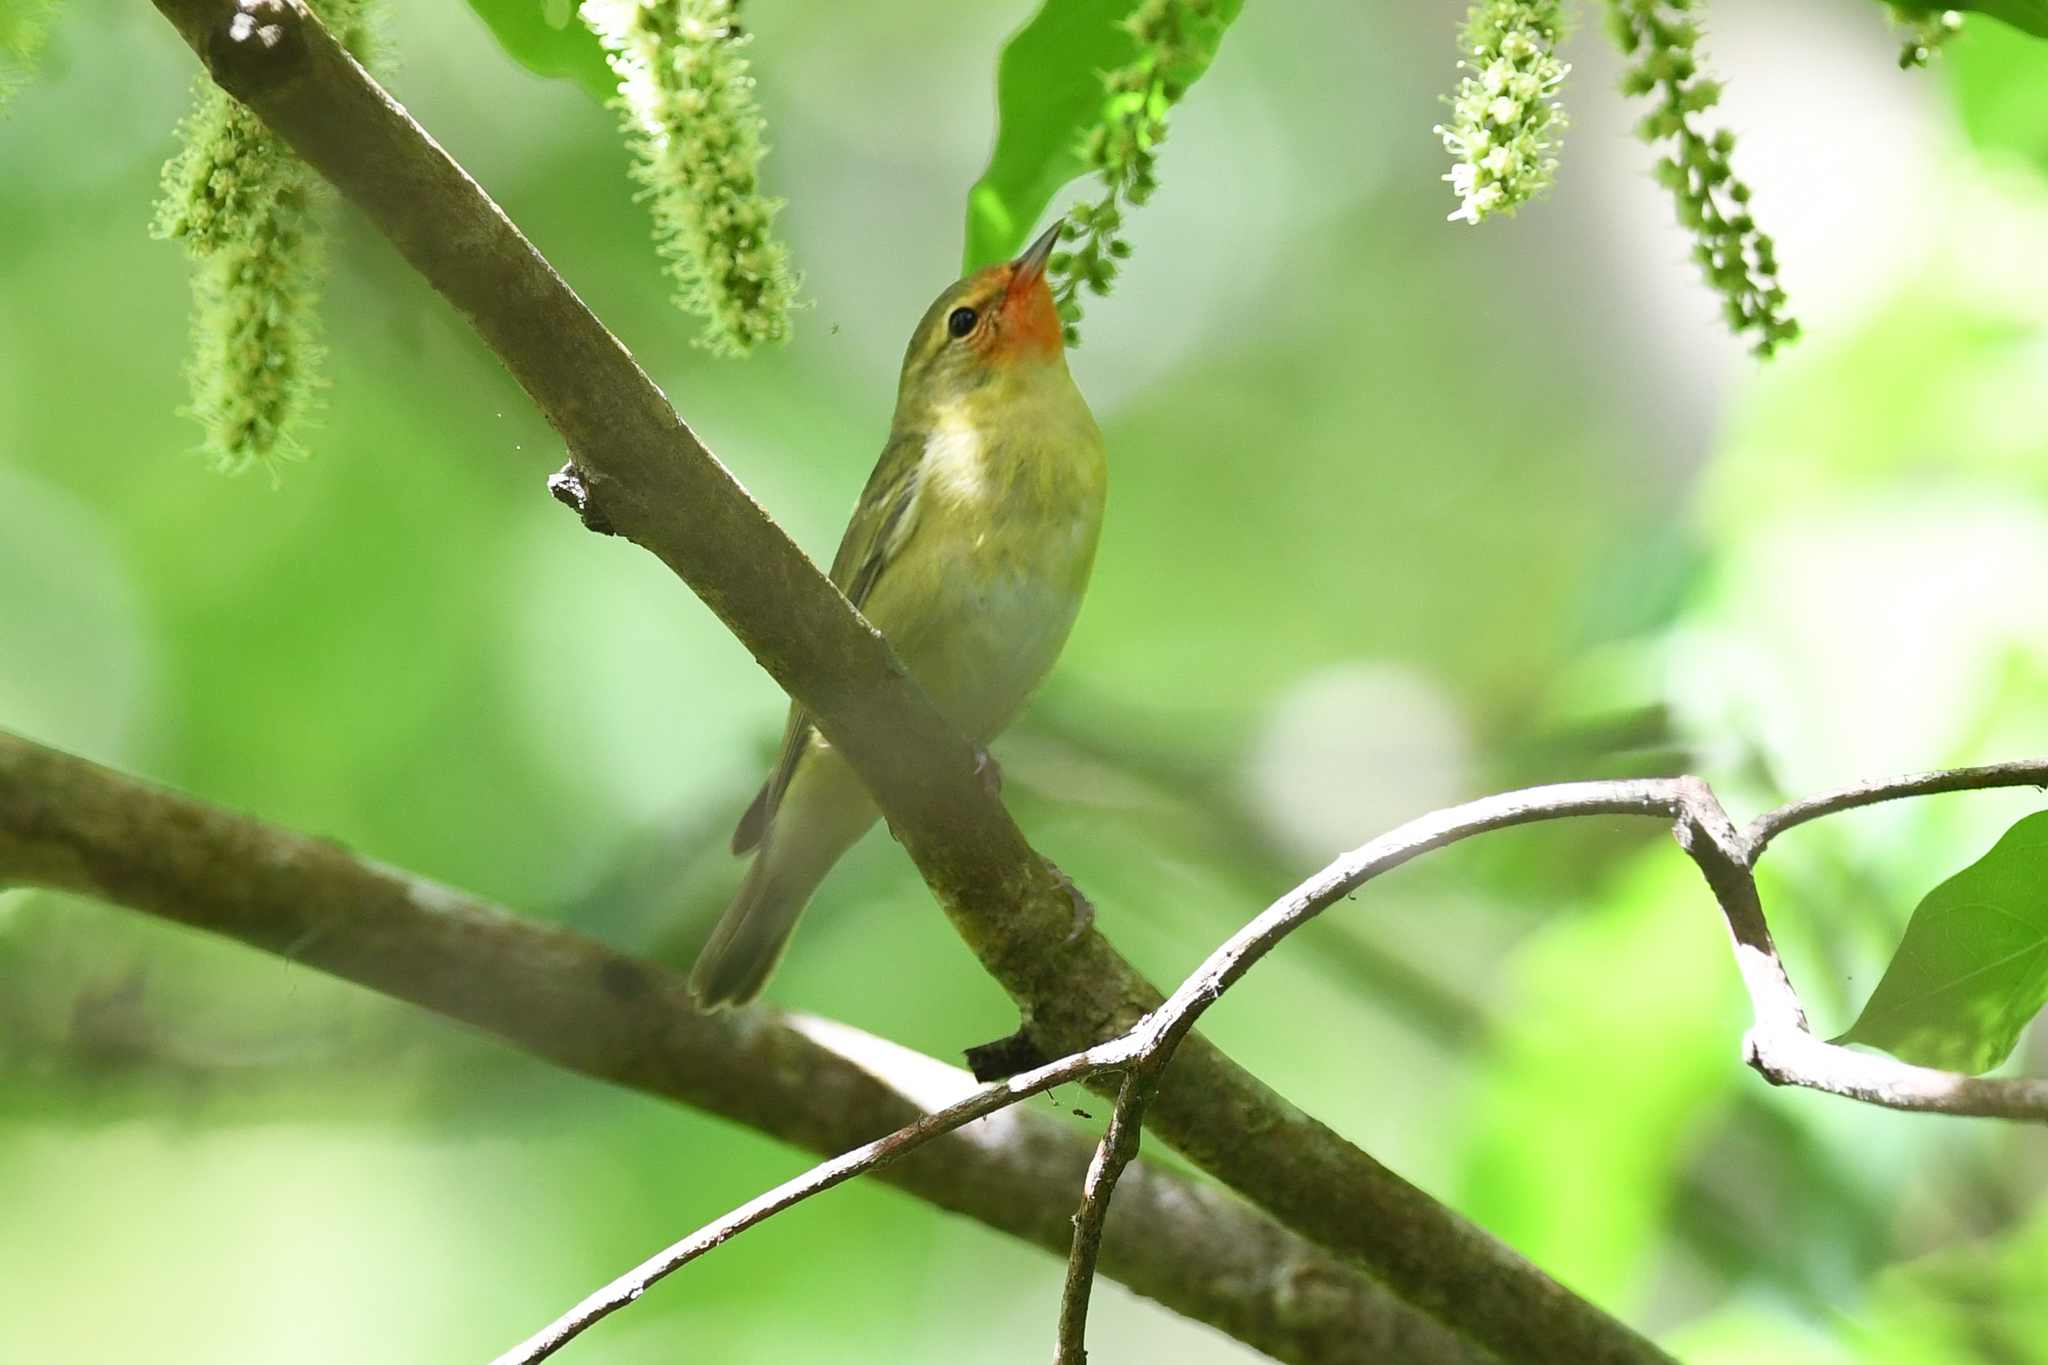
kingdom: Animalia
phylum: Chordata
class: Aves
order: Passeriformes
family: Parulidae
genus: Leiothlypis
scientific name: Leiothlypis peregrina
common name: Tennessee warbler
